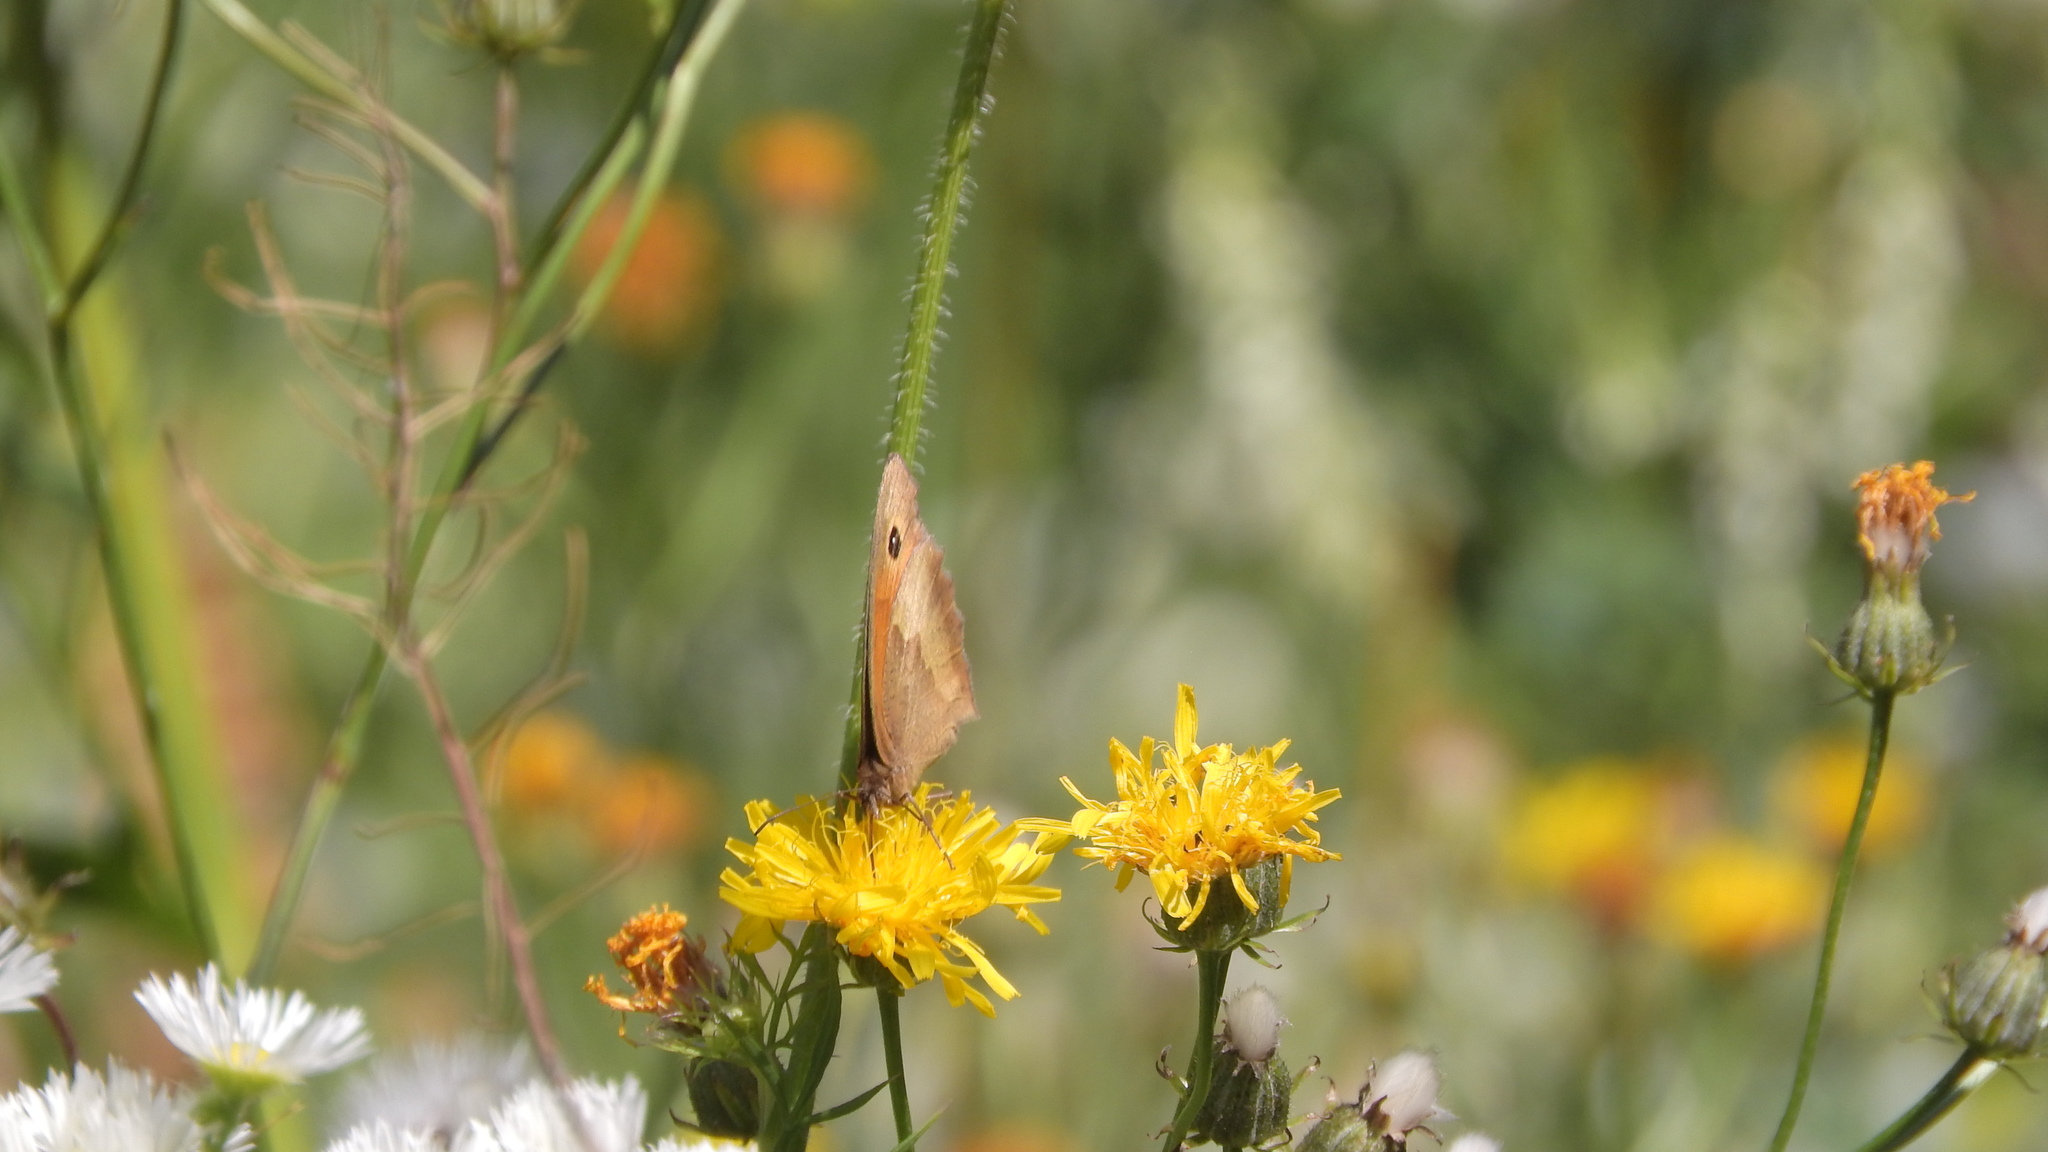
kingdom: Animalia
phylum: Arthropoda
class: Insecta
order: Lepidoptera
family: Nymphalidae
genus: Maniola
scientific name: Maniola jurtina
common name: Meadow brown
